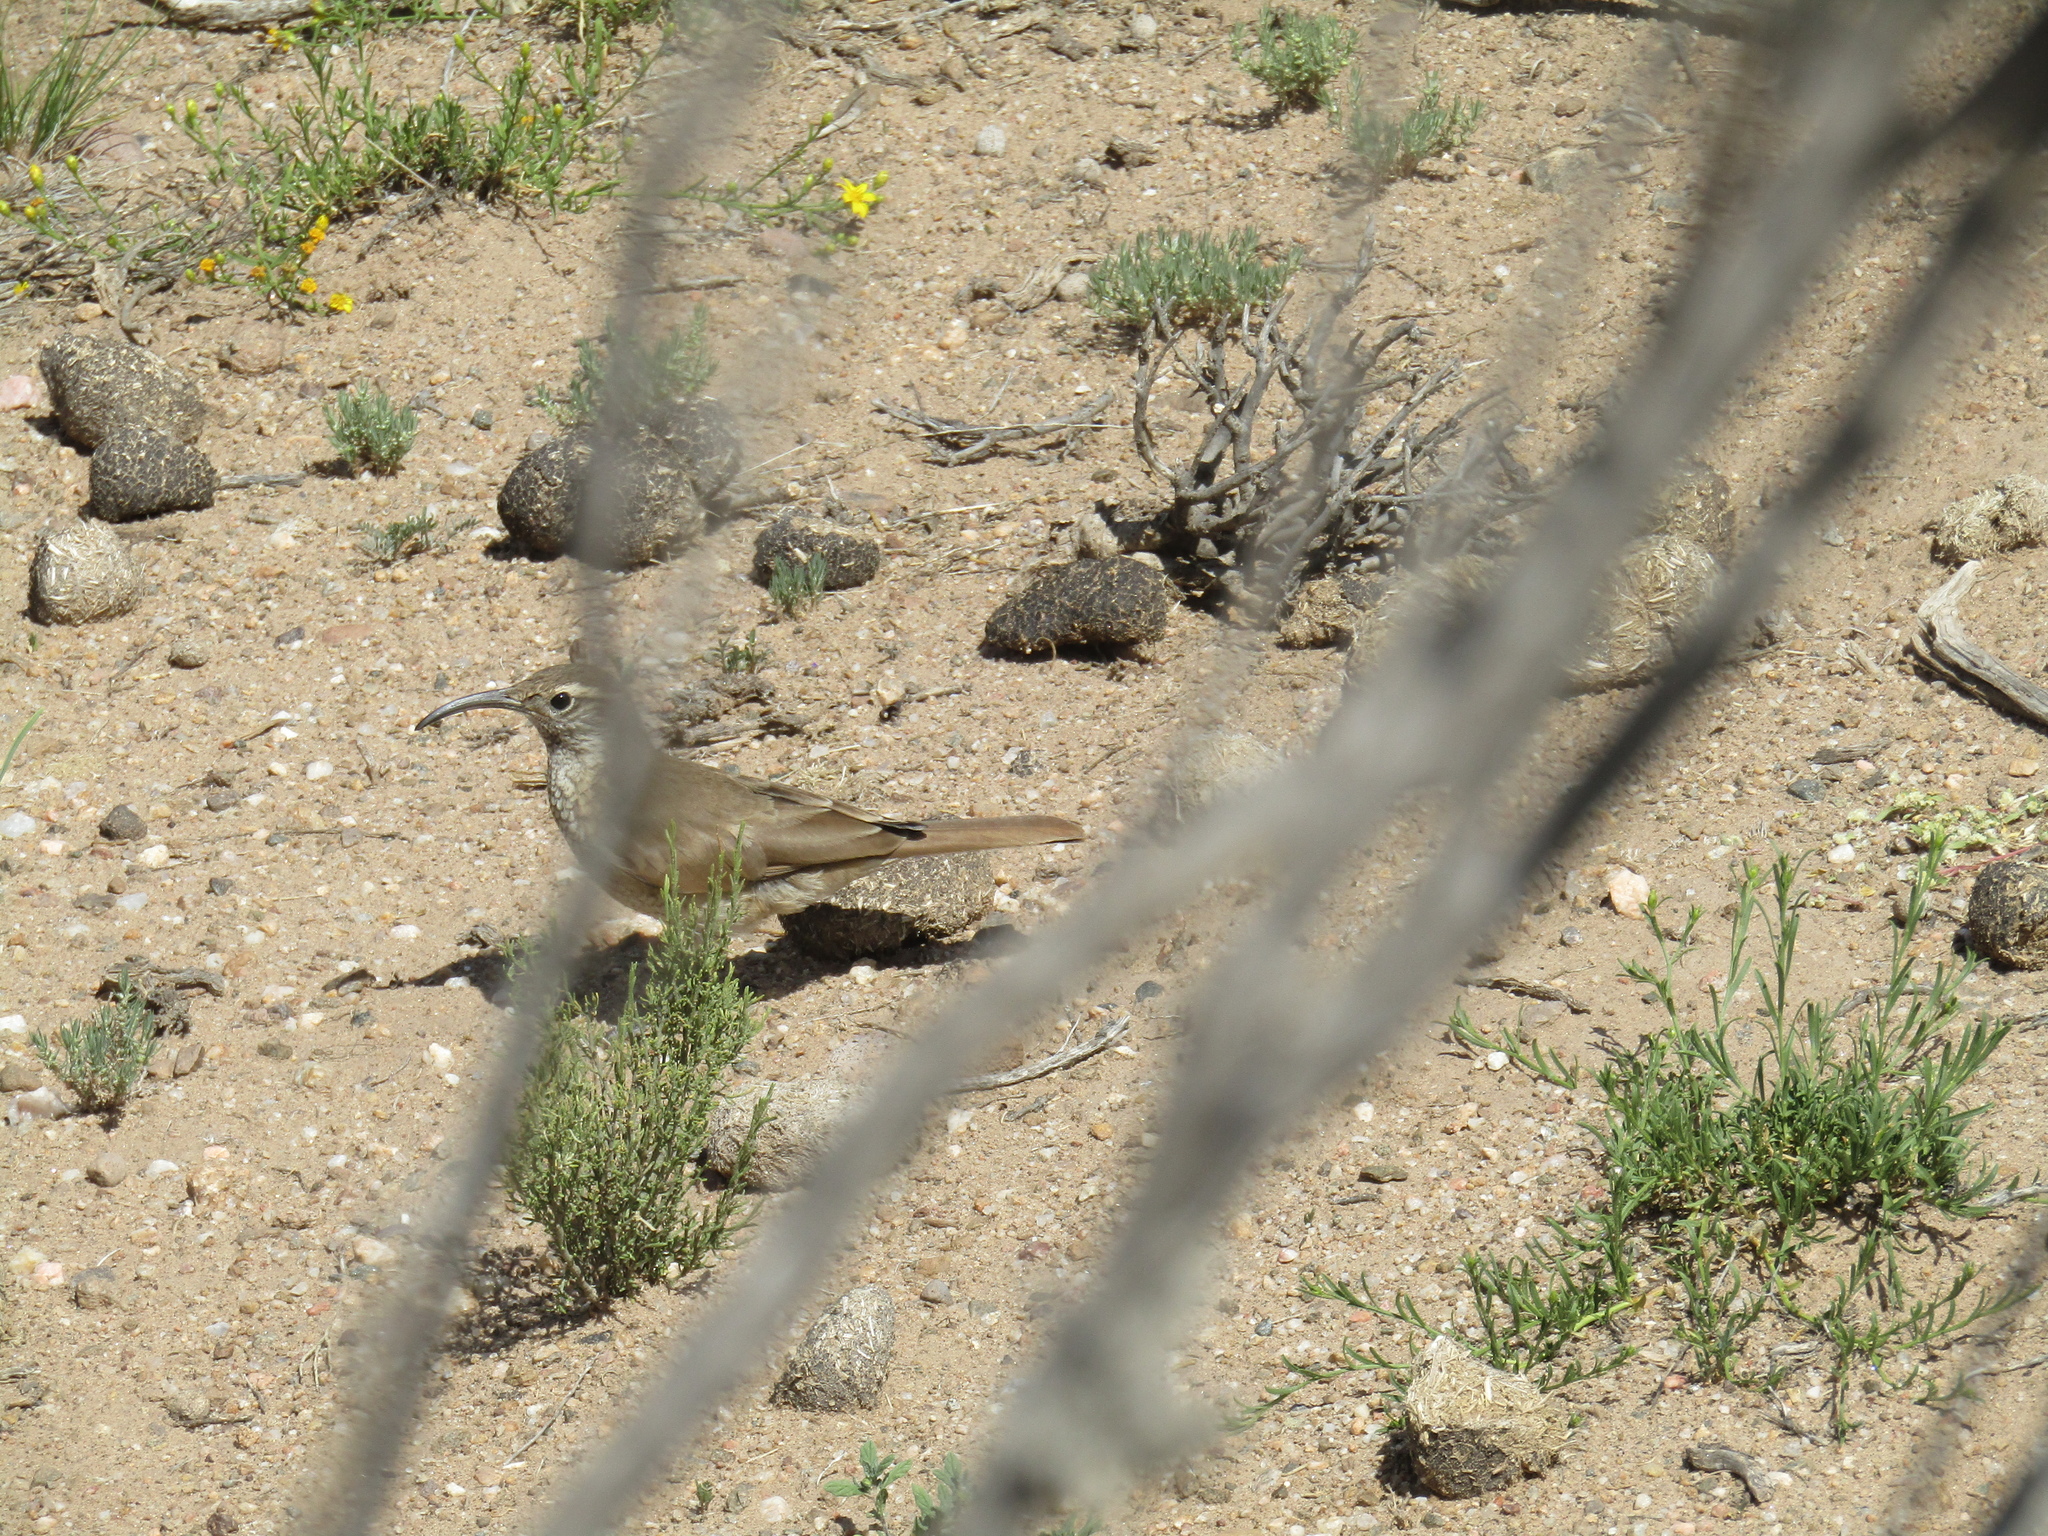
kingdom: Animalia
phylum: Chordata
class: Aves
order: Passeriformes
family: Furnariidae
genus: Upucerthia
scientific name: Upucerthia dumetaria
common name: Scale-throated earthcreeper
